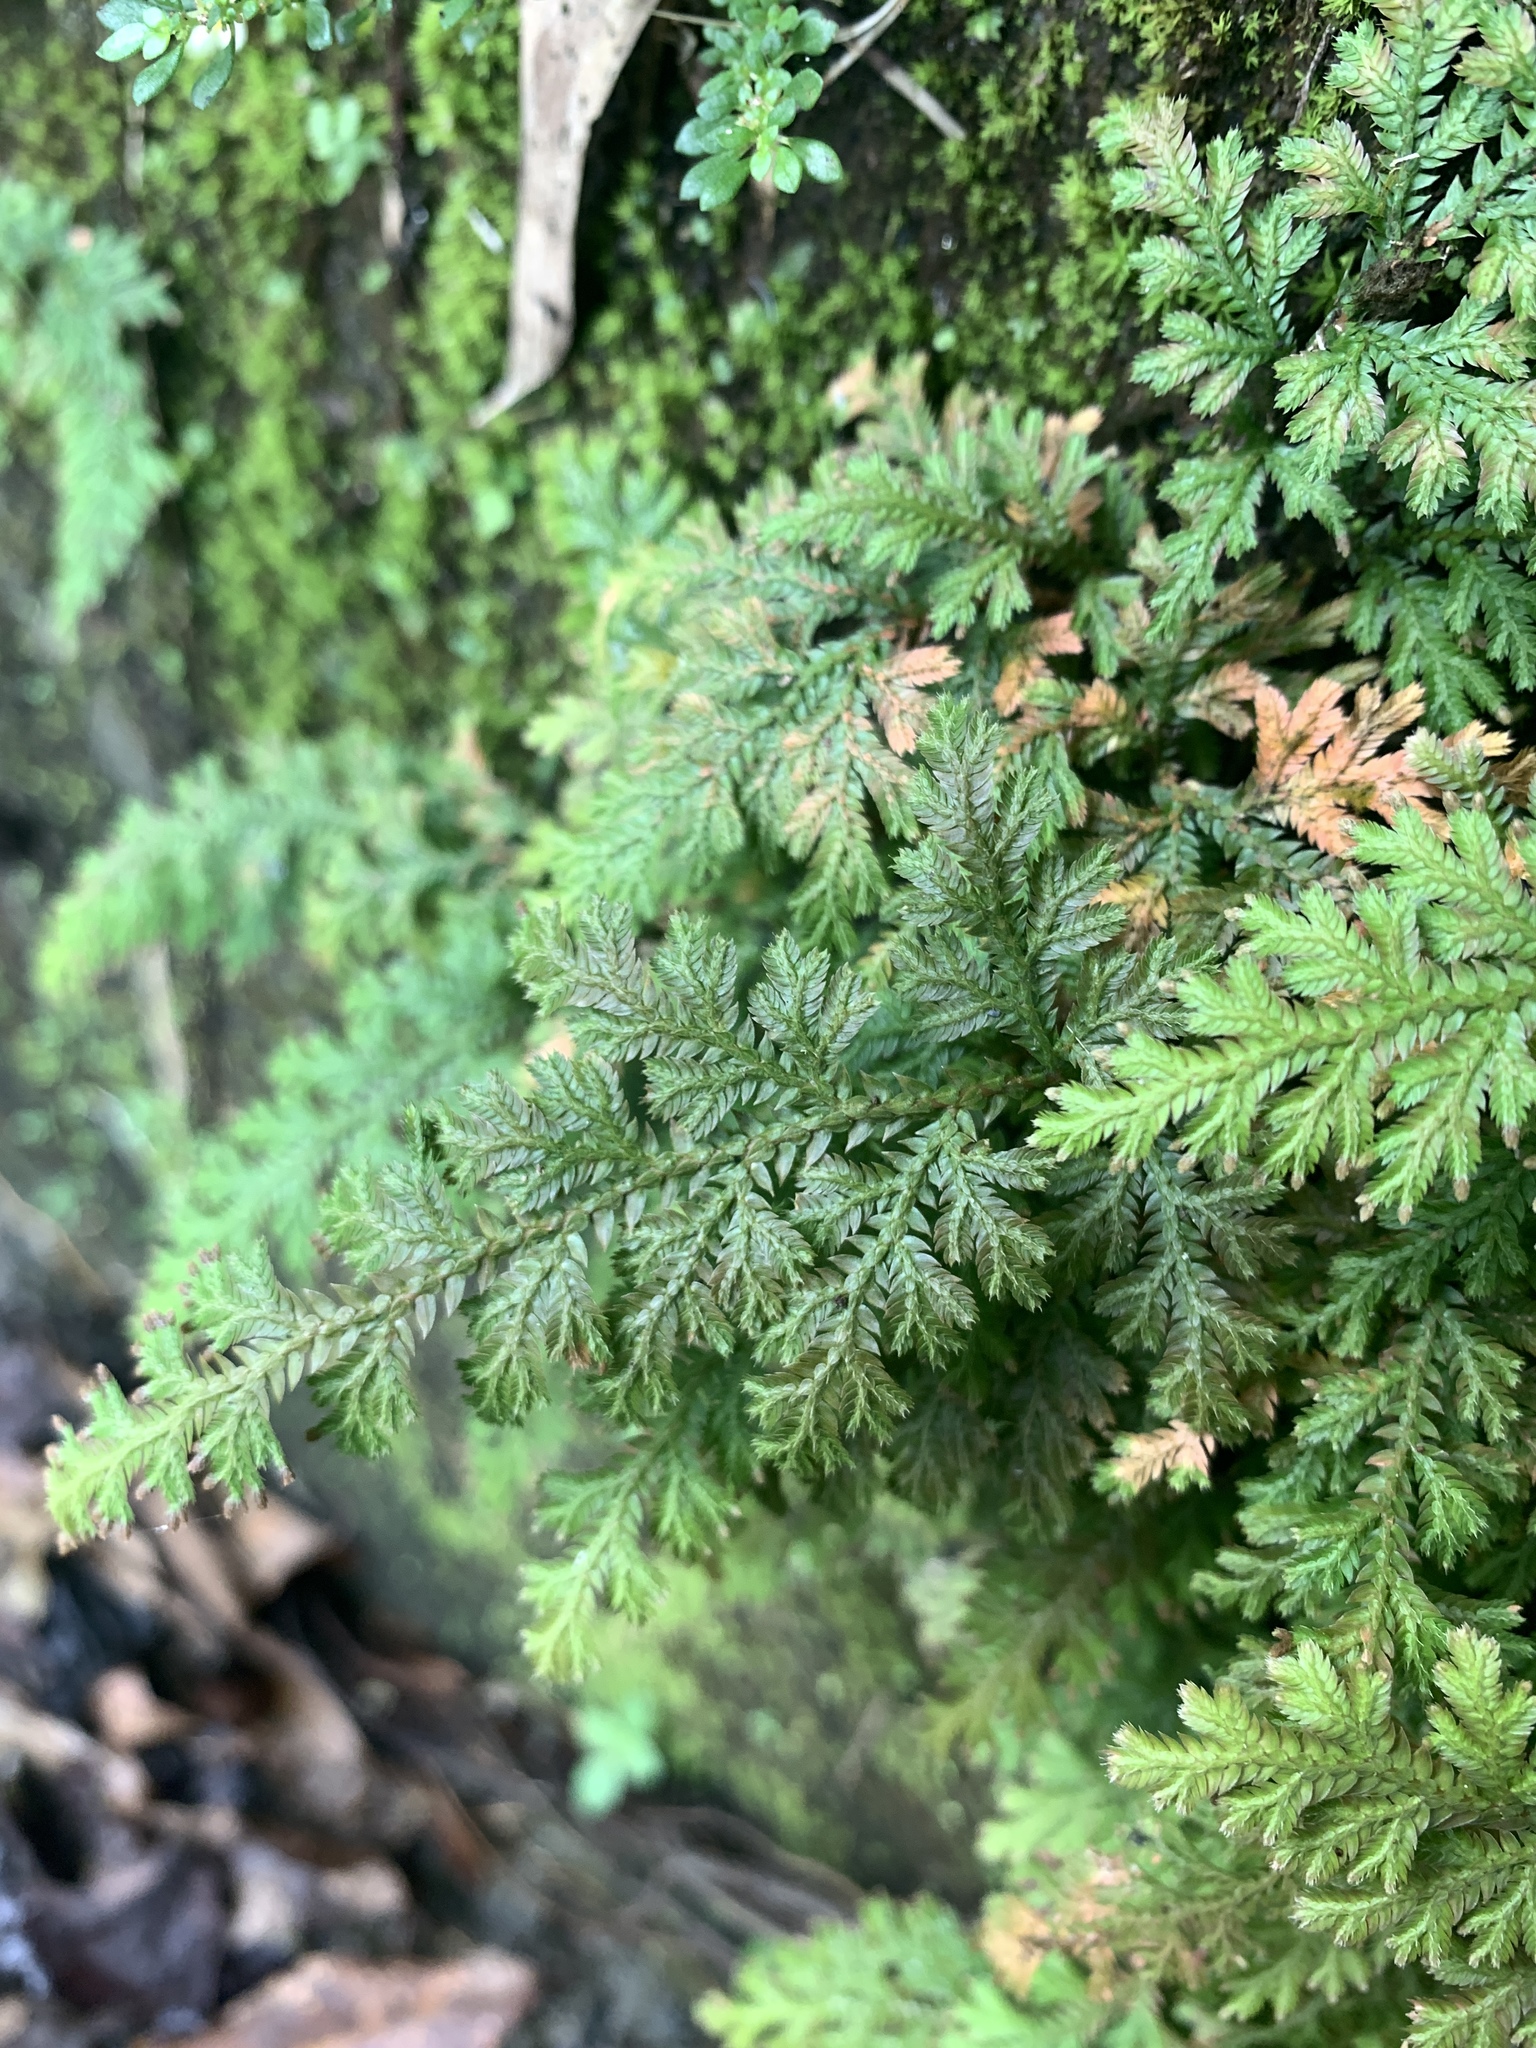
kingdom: Plantae
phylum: Tracheophyta
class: Lycopodiopsida
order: Selaginellales
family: Selaginellaceae
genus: Selaginella
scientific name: Selaginella moellendorffii
